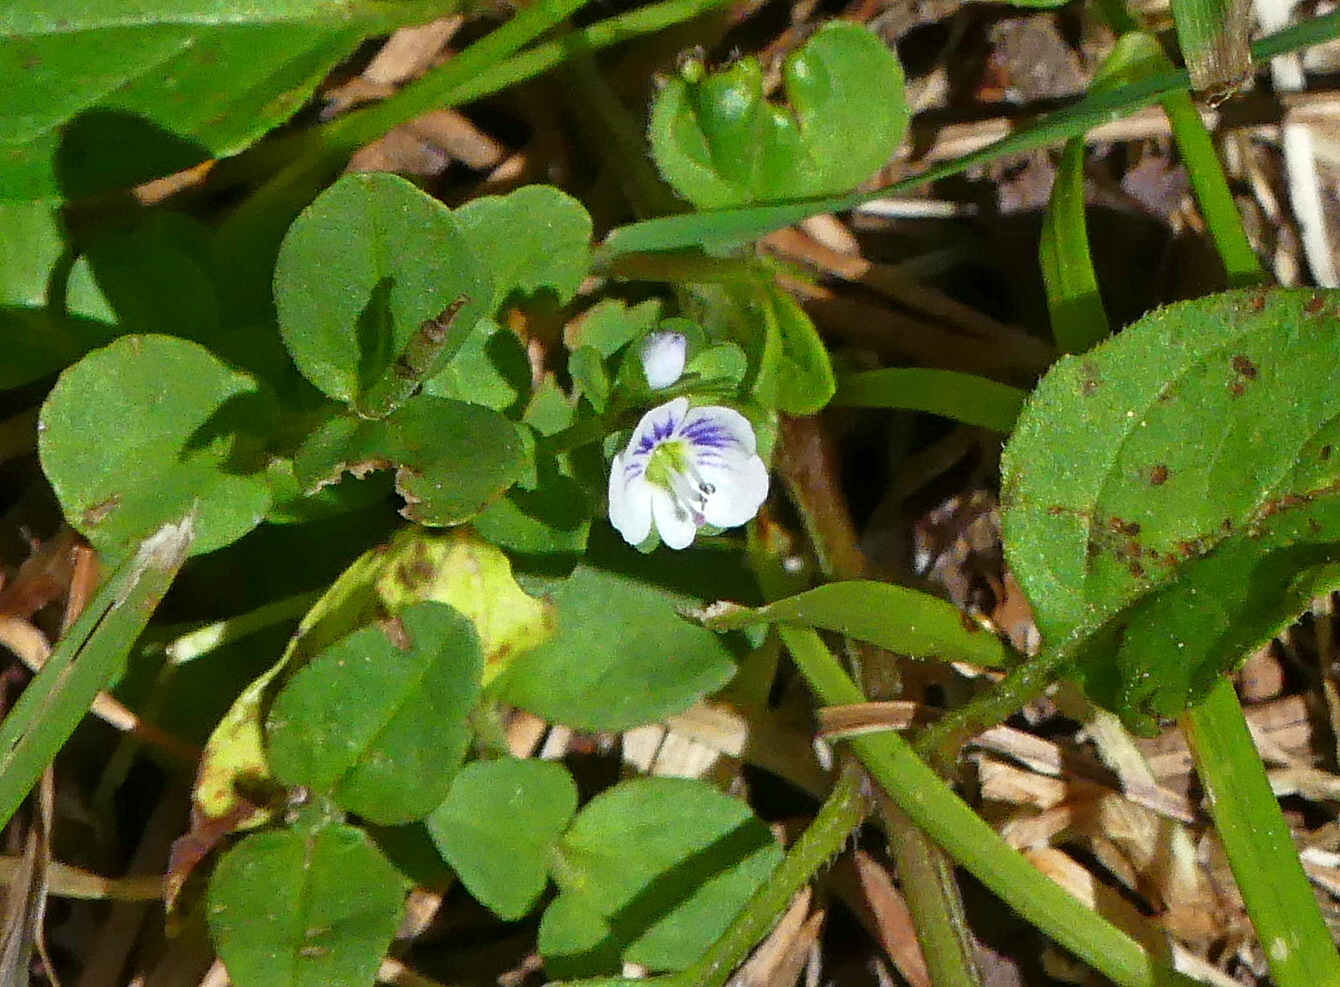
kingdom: Plantae
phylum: Tracheophyta
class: Magnoliopsida
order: Lamiales
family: Plantaginaceae
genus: Veronica
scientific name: Veronica serpyllifolia
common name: Thyme-leaved speedwell
